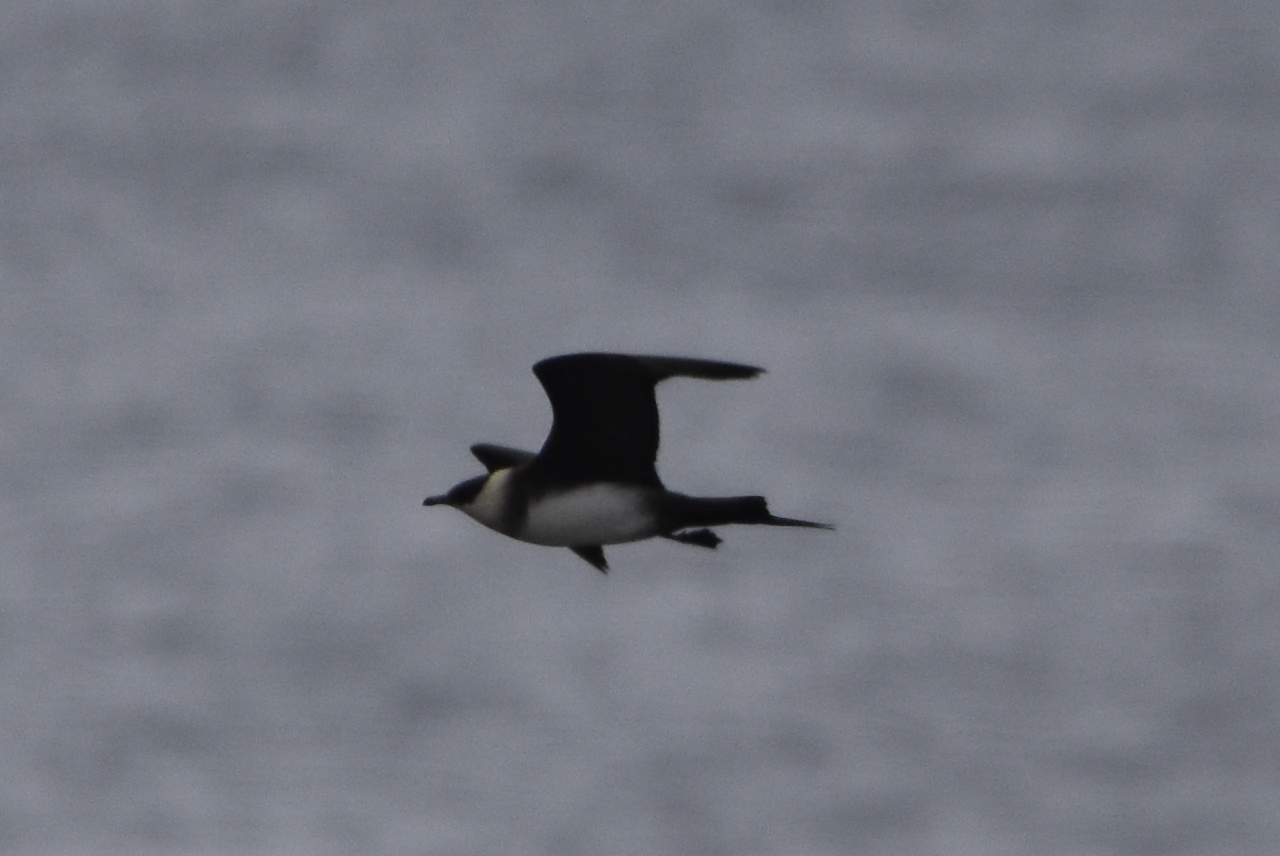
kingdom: Animalia
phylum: Chordata
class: Aves
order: Charadriiformes
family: Stercorariidae
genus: Stercorarius
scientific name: Stercorarius parasiticus
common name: Parasitic jaeger
